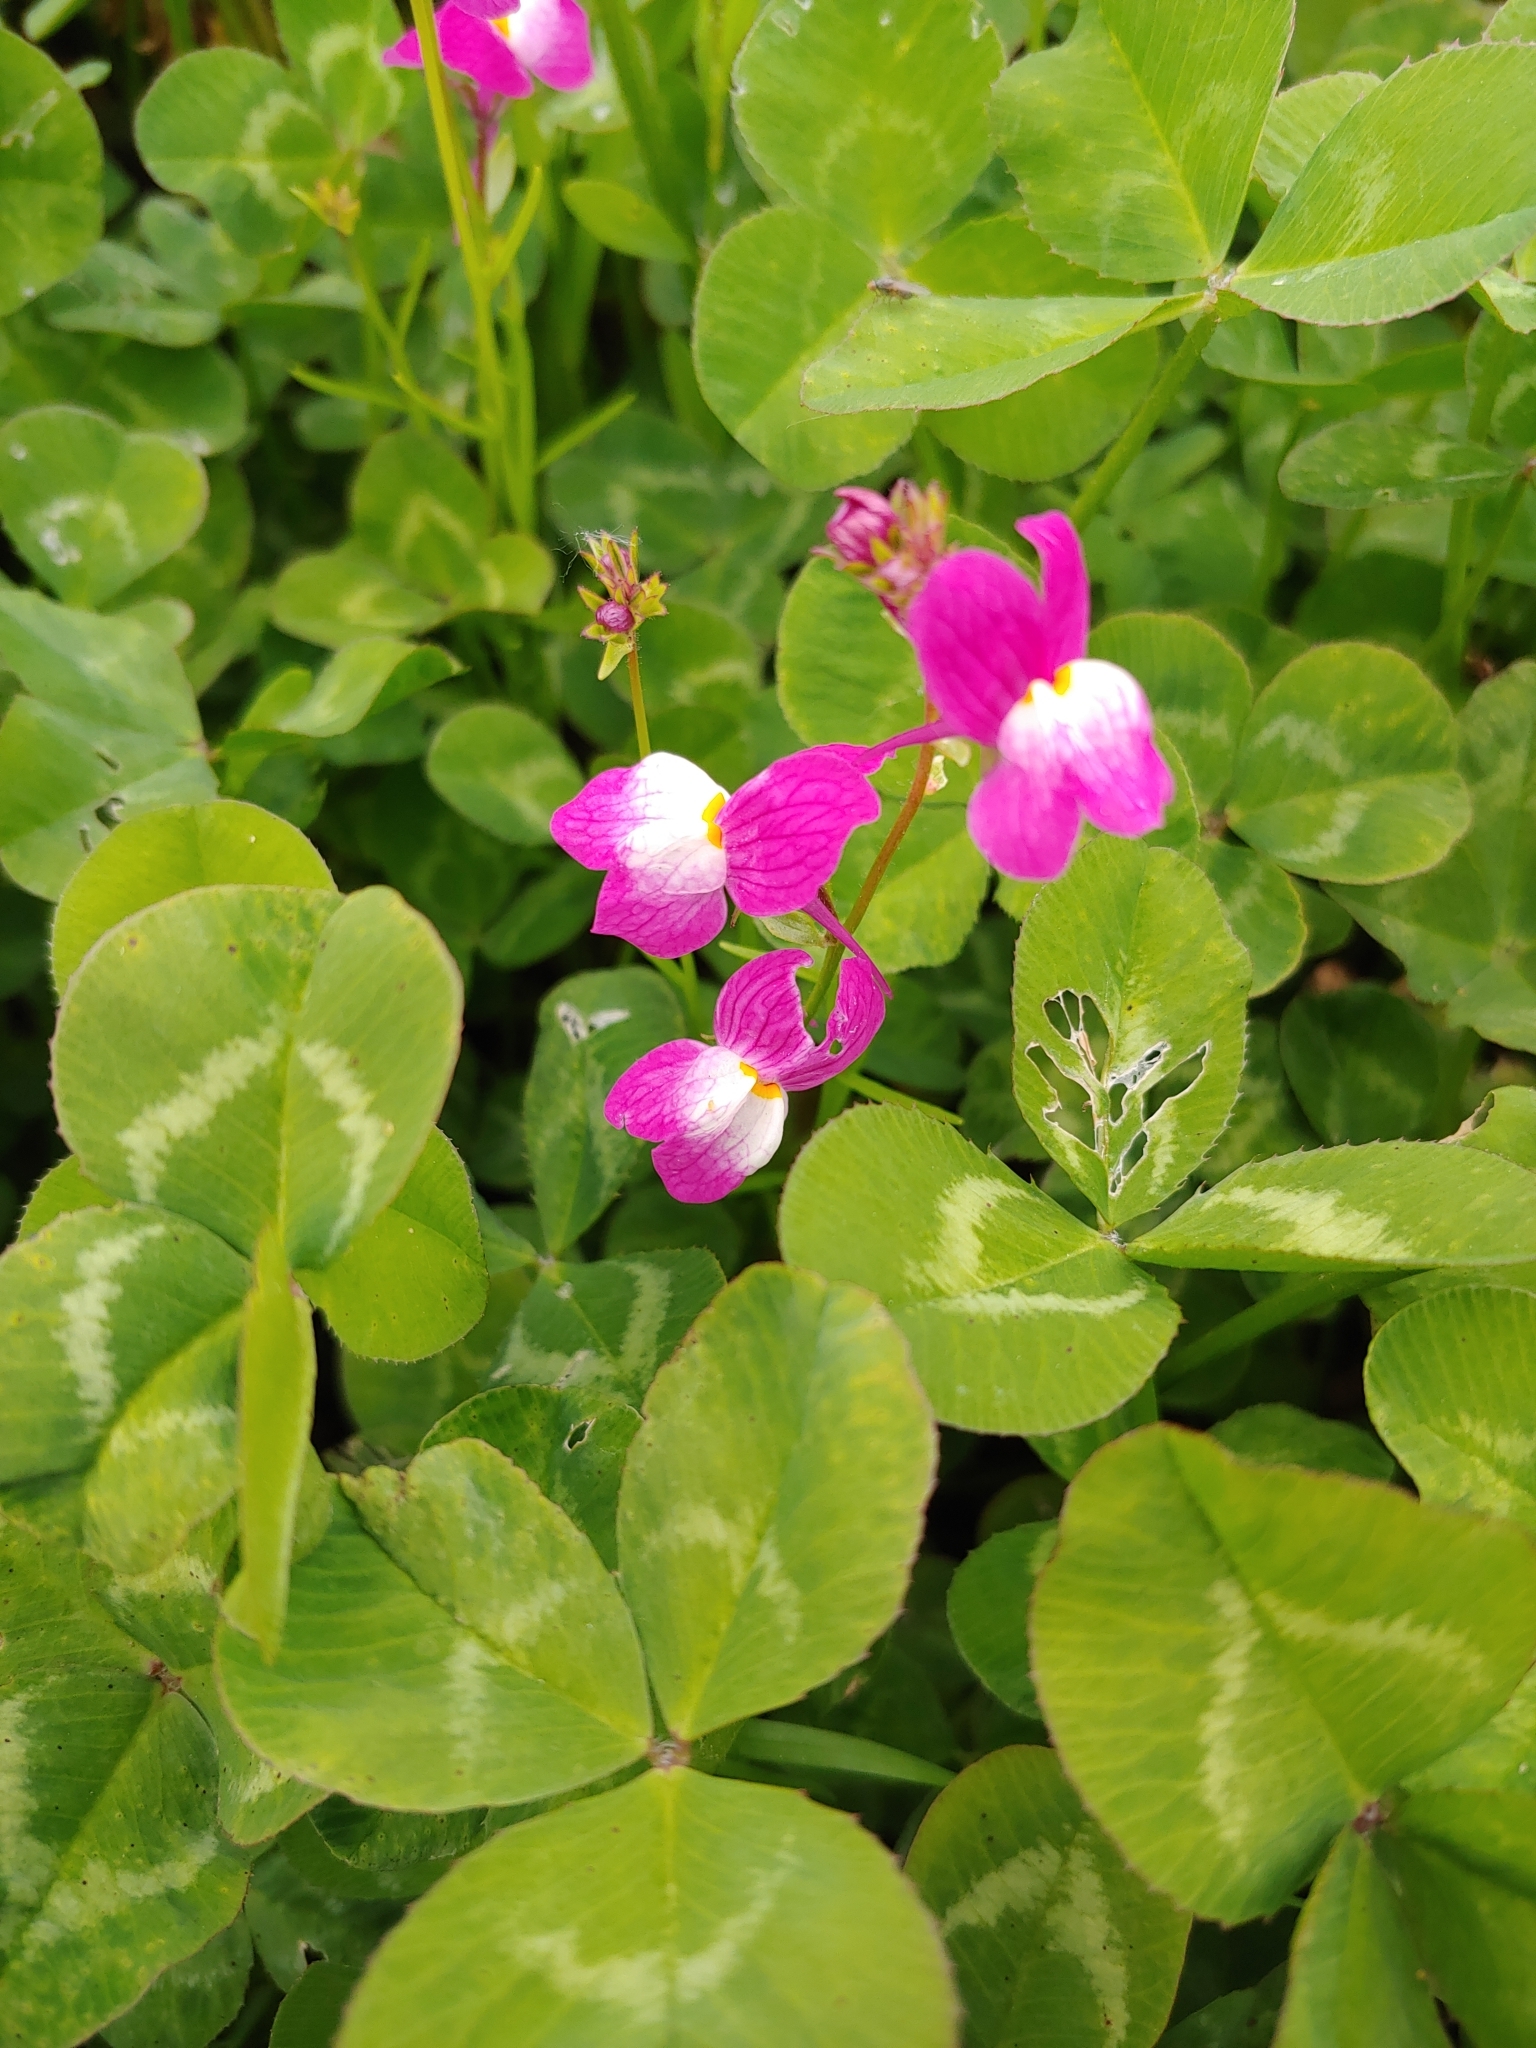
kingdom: Plantae
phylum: Tracheophyta
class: Magnoliopsida
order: Lamiales
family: Plantaginaceae
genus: Linaria
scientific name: Linaria maroccana
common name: Moroccan toadflax
